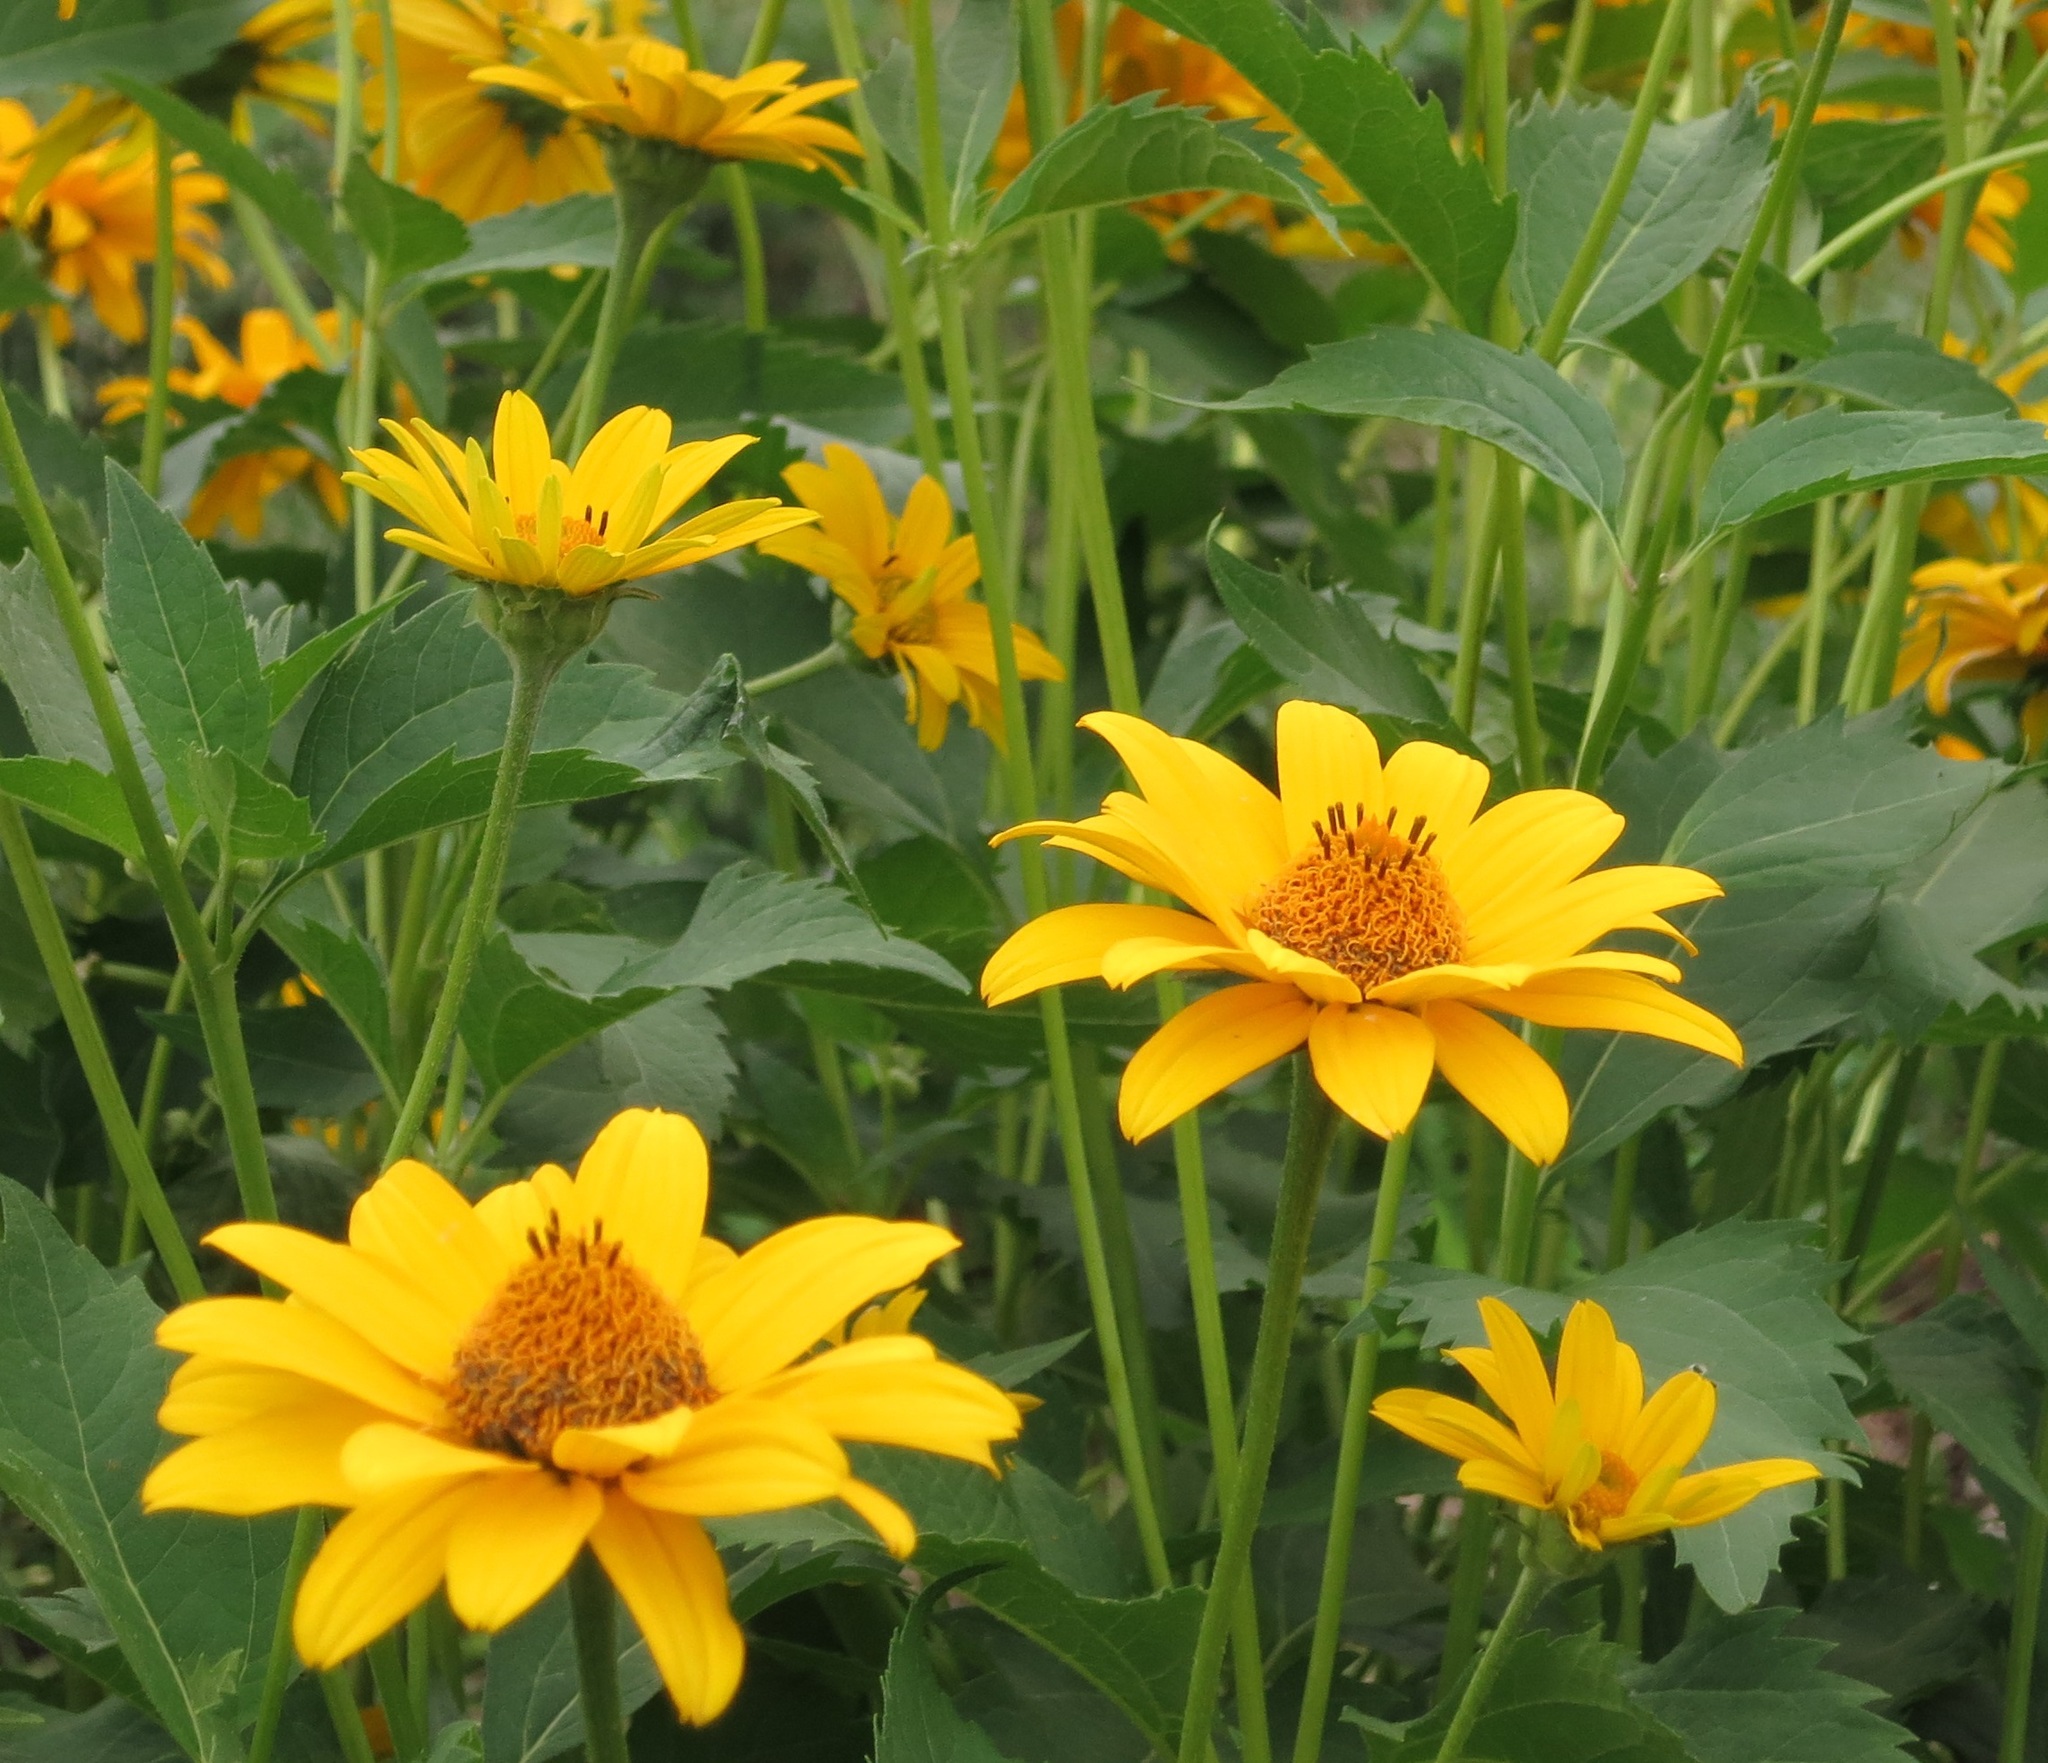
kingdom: Plantae
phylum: Tracheophyta
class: Magnoliopsida
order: Asterales
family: Asteraceae
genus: Heliopsis
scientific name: Heliopsis helianthoides
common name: False sunflower
